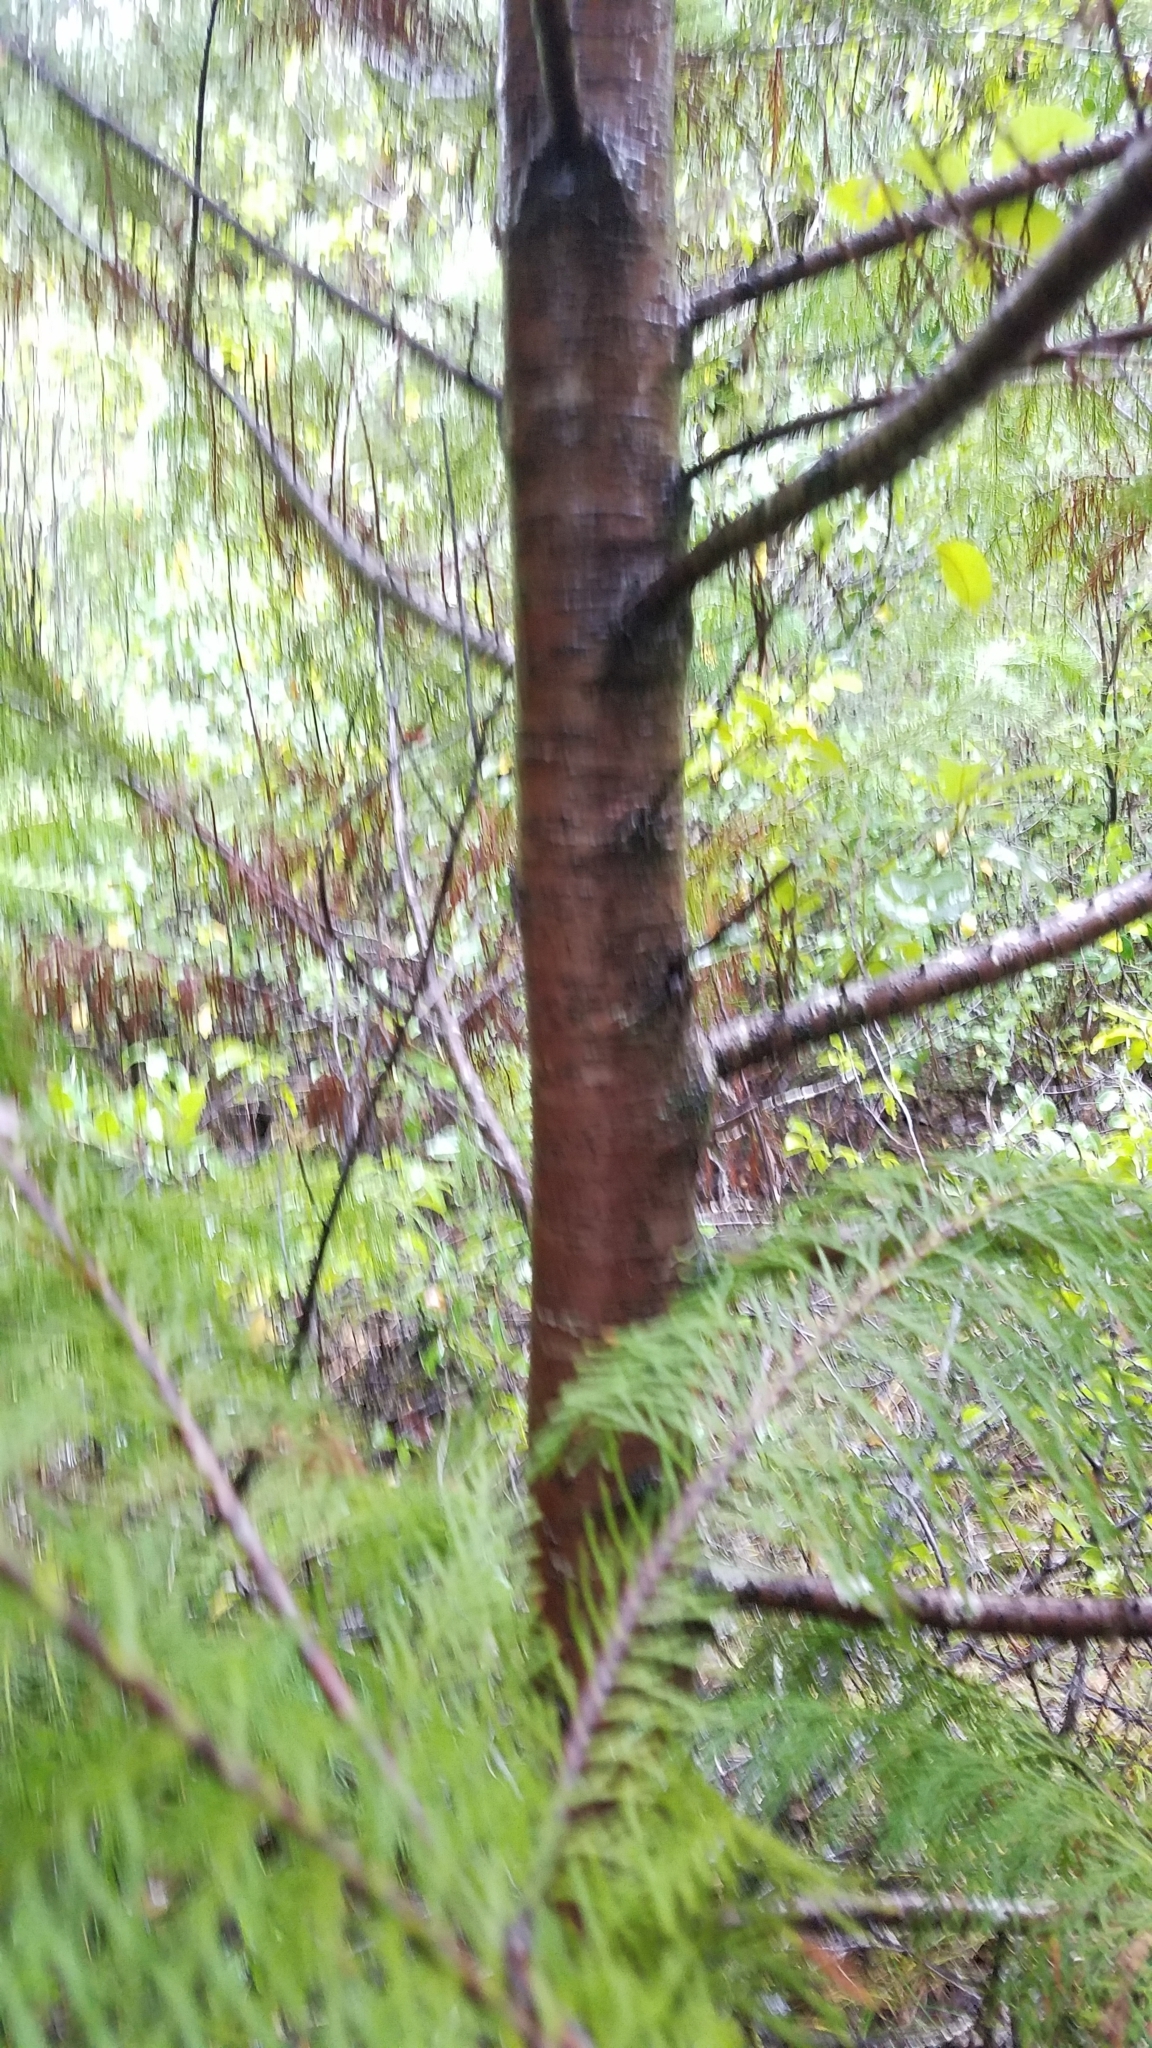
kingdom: Plantae
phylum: Tracheophyta
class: Pinopsida
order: Pinales
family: Cupressaceae
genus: Chamaecyparis
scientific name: Chamaecyparis lawsoniana
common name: Lawson's cypress
